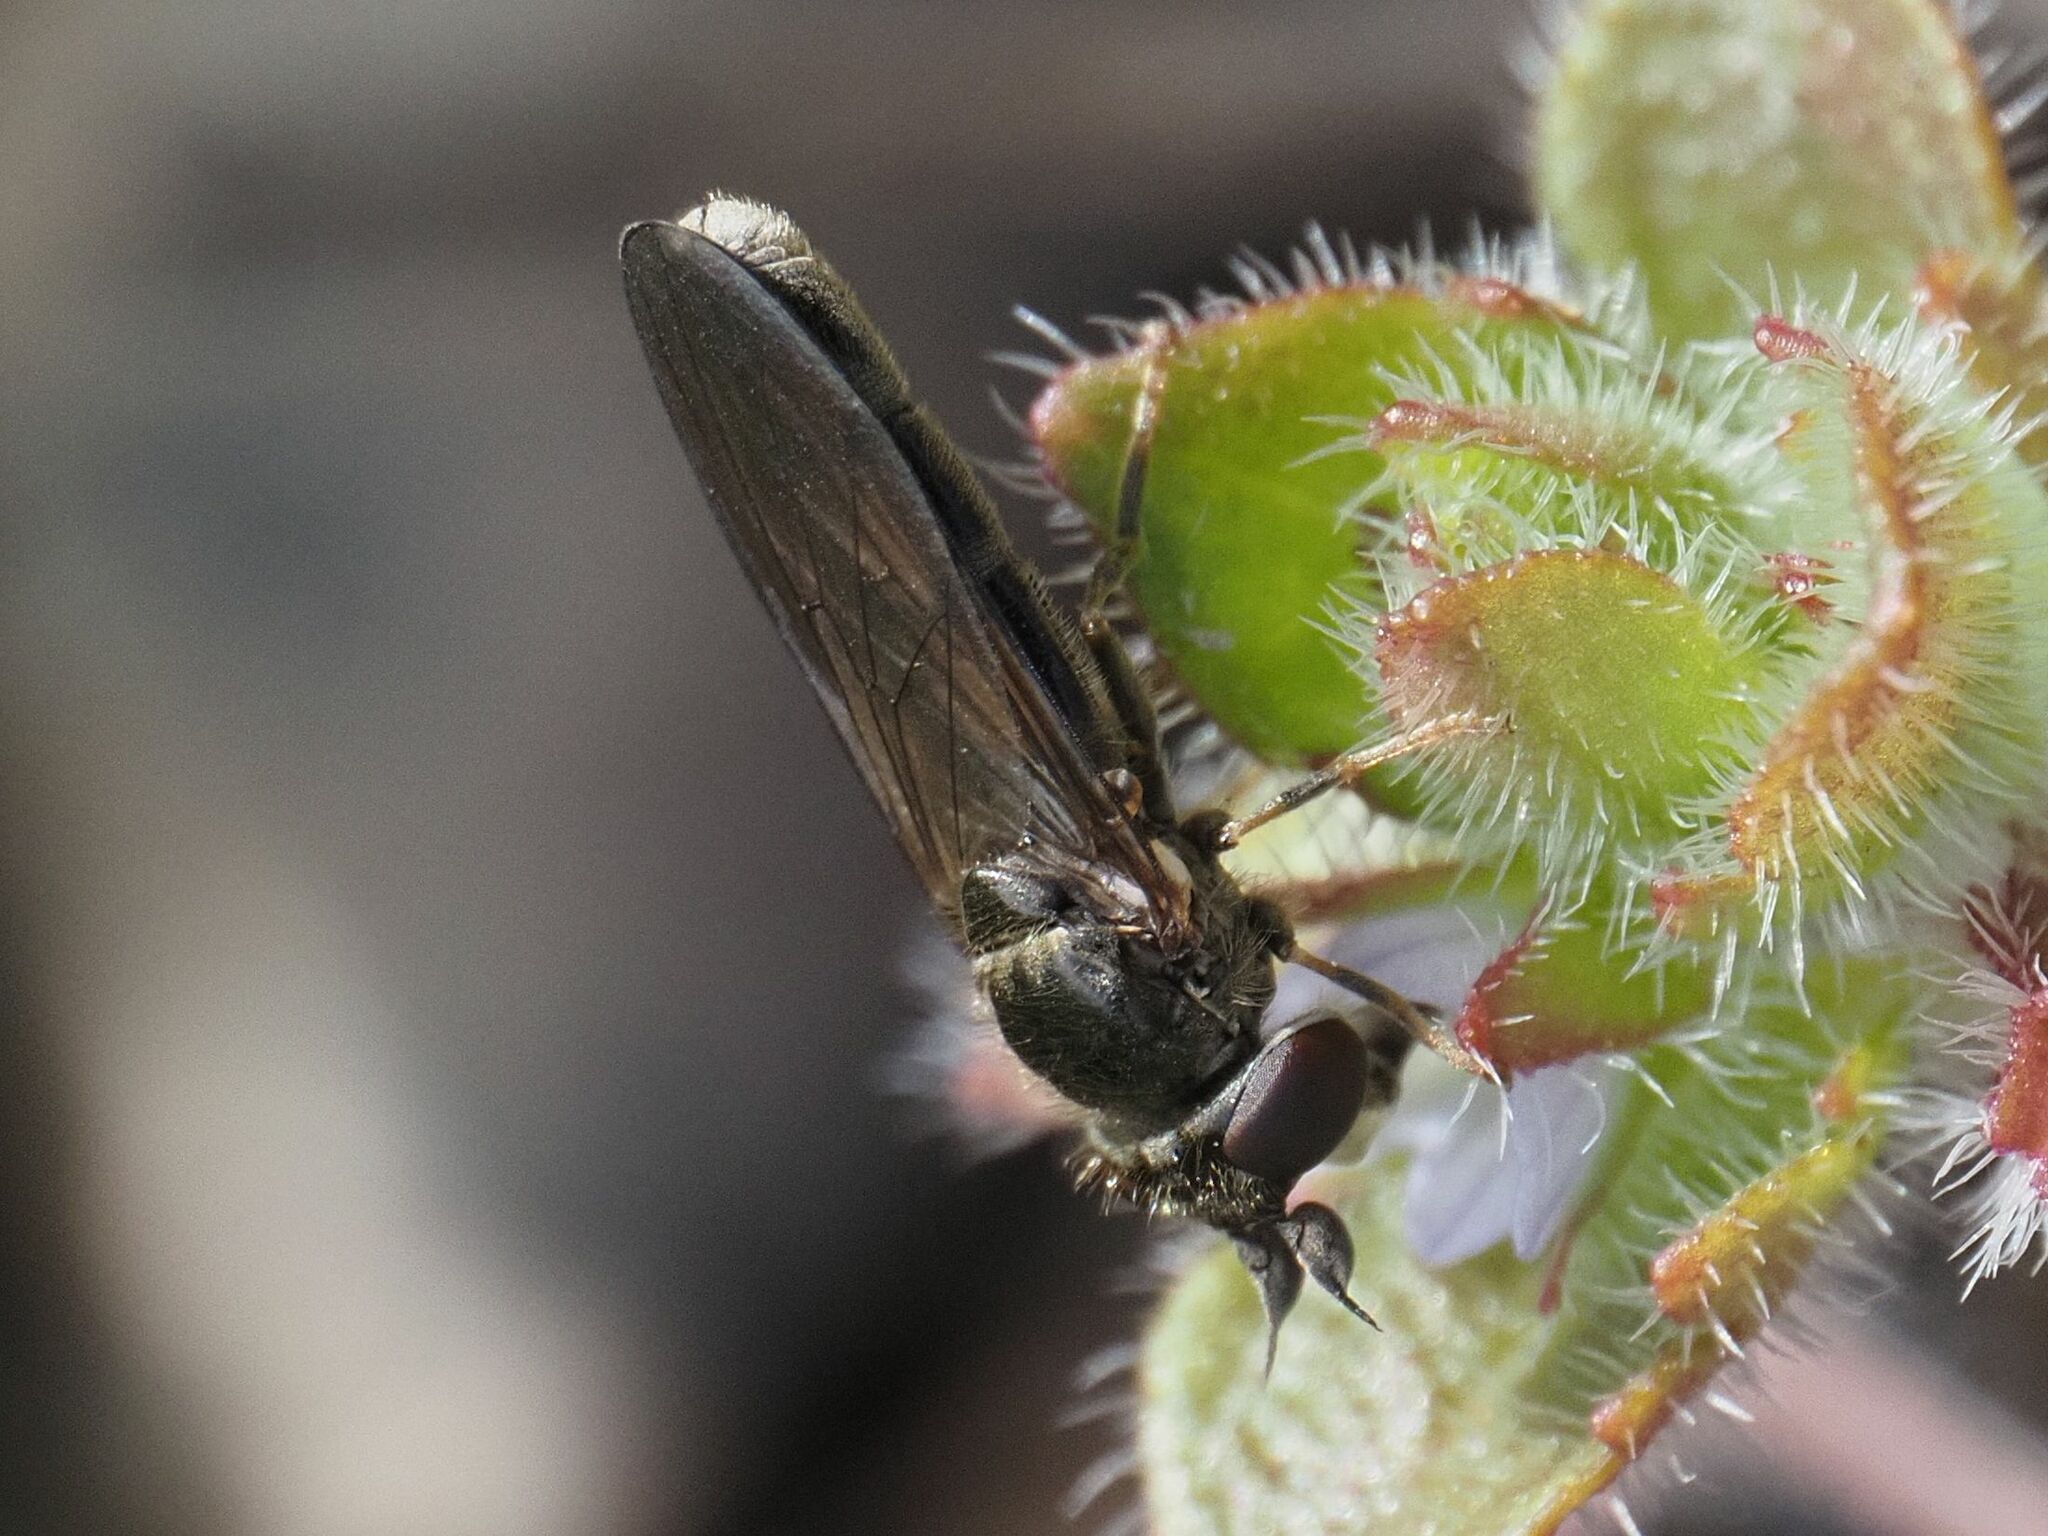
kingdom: Animalia
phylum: Arthropoda
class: Insecta
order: Diptera
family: Syrphidae
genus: Pseudopelecocera
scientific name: Pseudopelecocera latifrons
